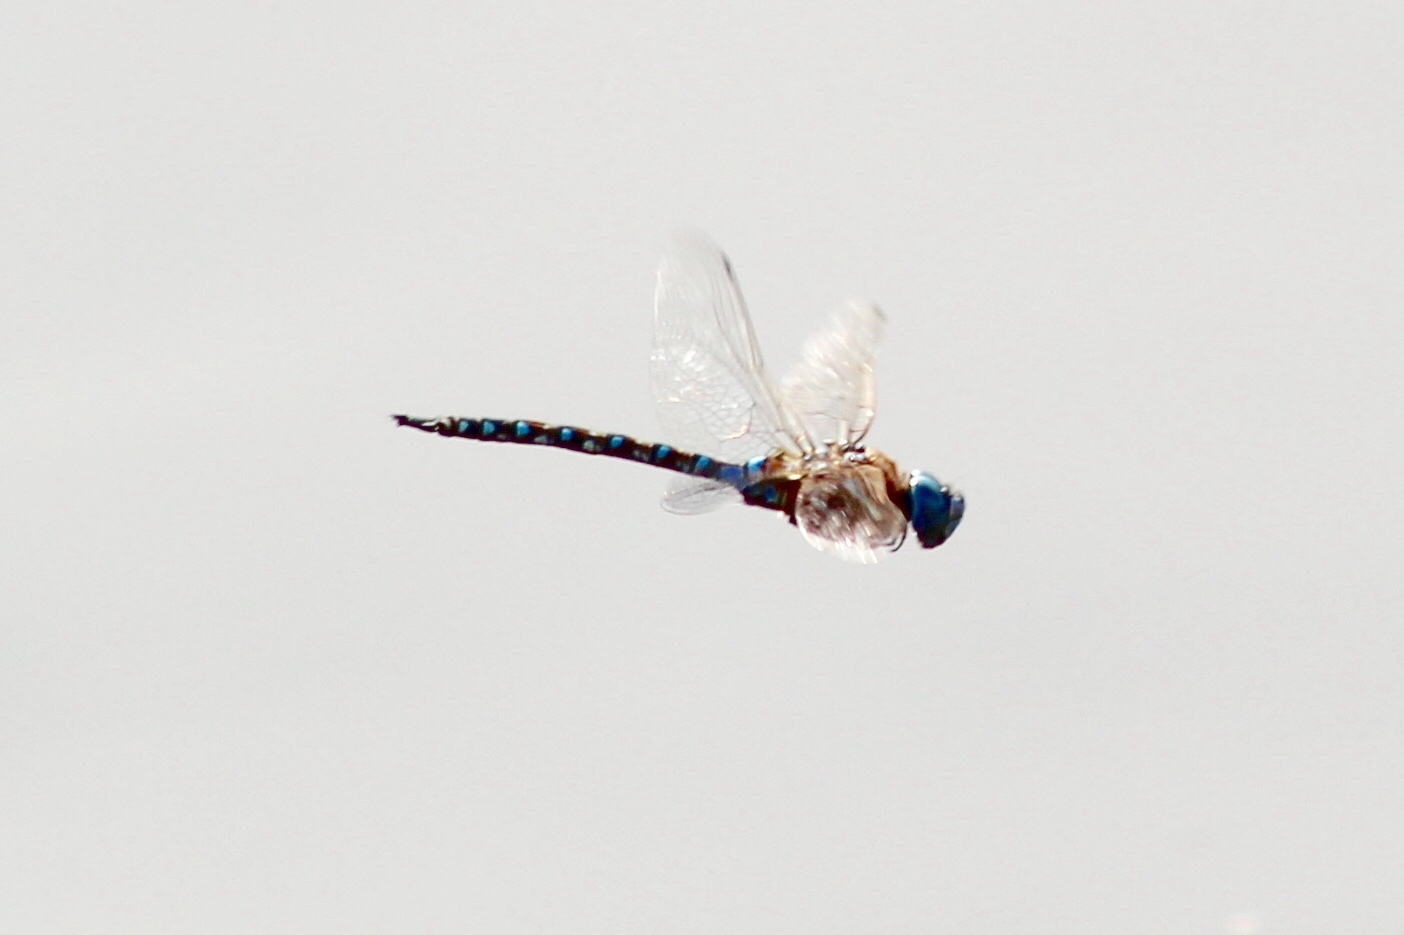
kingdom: Animalia
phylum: Arthropoda
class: Insecta
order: Odonata
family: Aeshnidae
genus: Rhionaeschna
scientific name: Rhionaeschna multicolor
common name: Blue-eyed darner
